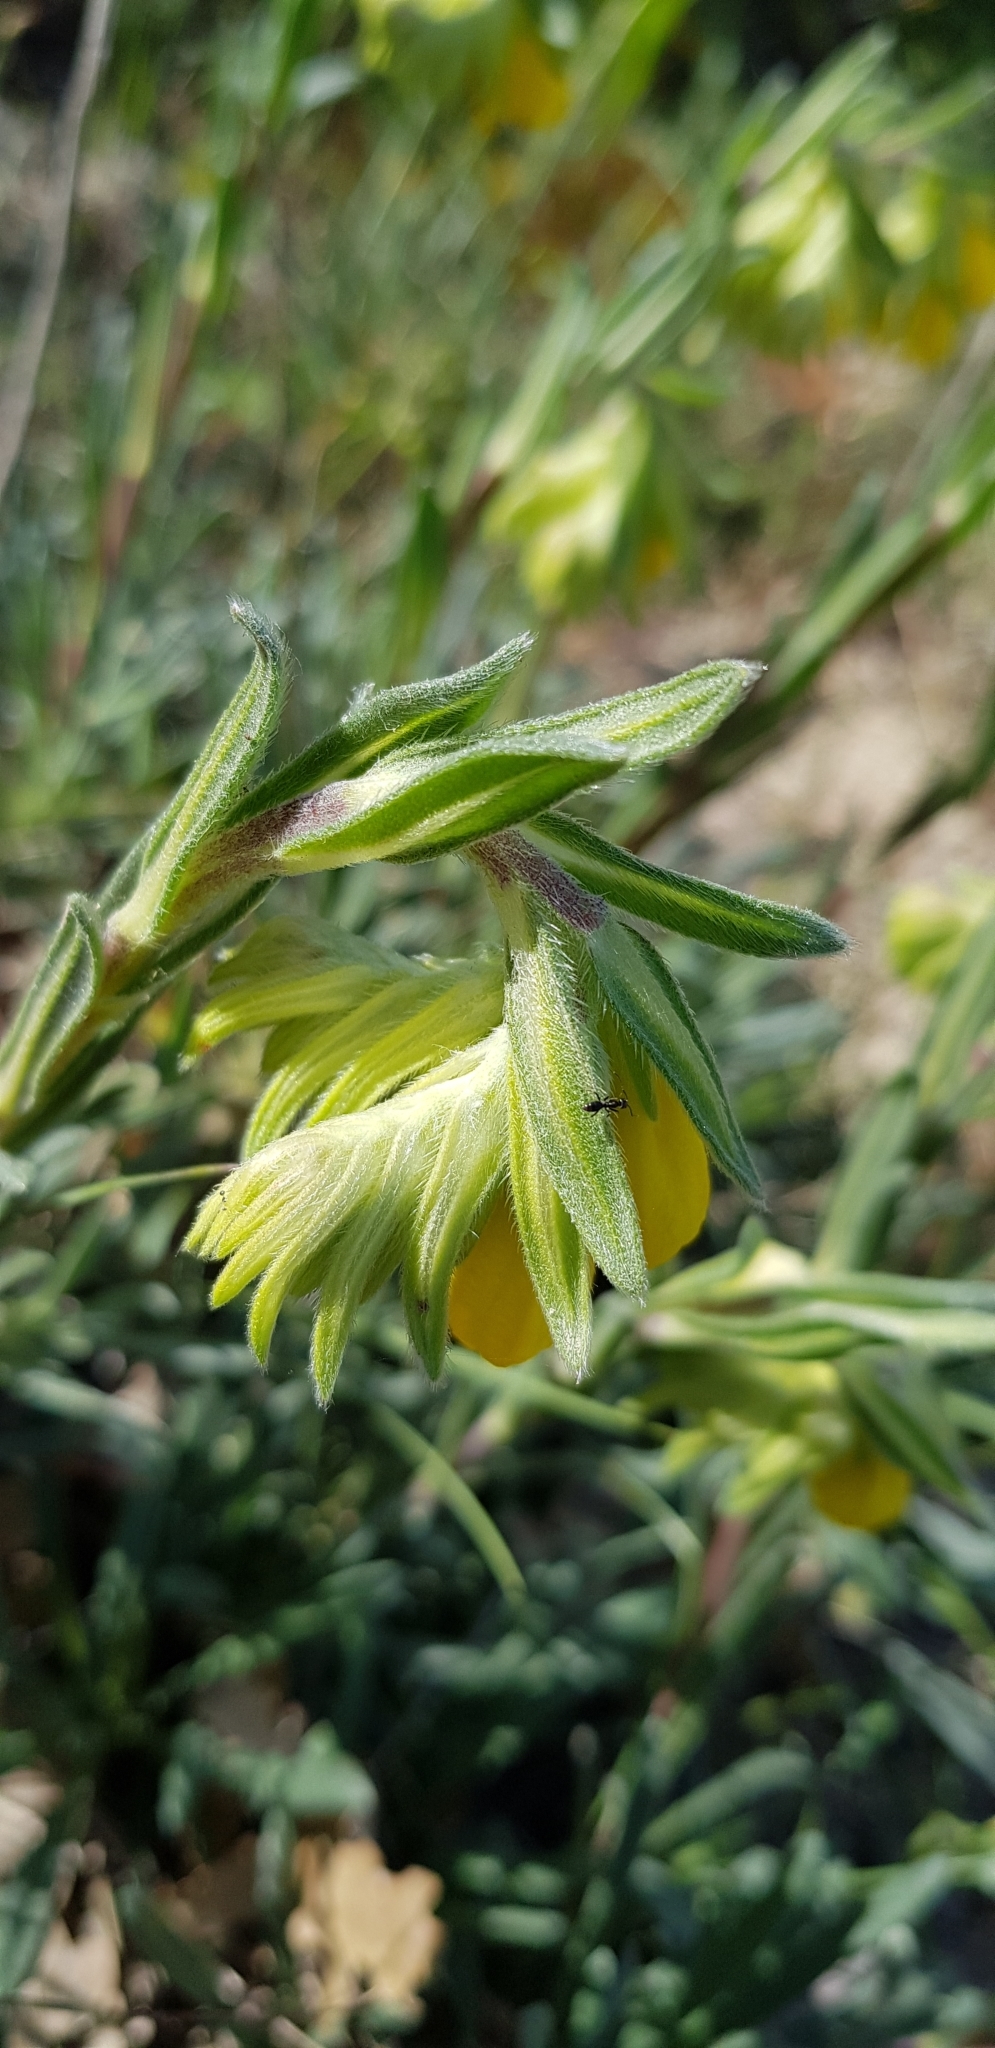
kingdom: Plantae
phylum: Tracheophyta
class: Magnoliopsida
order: Boraginales
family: Boraginaceae
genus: Onosma
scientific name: Onosma taurica
